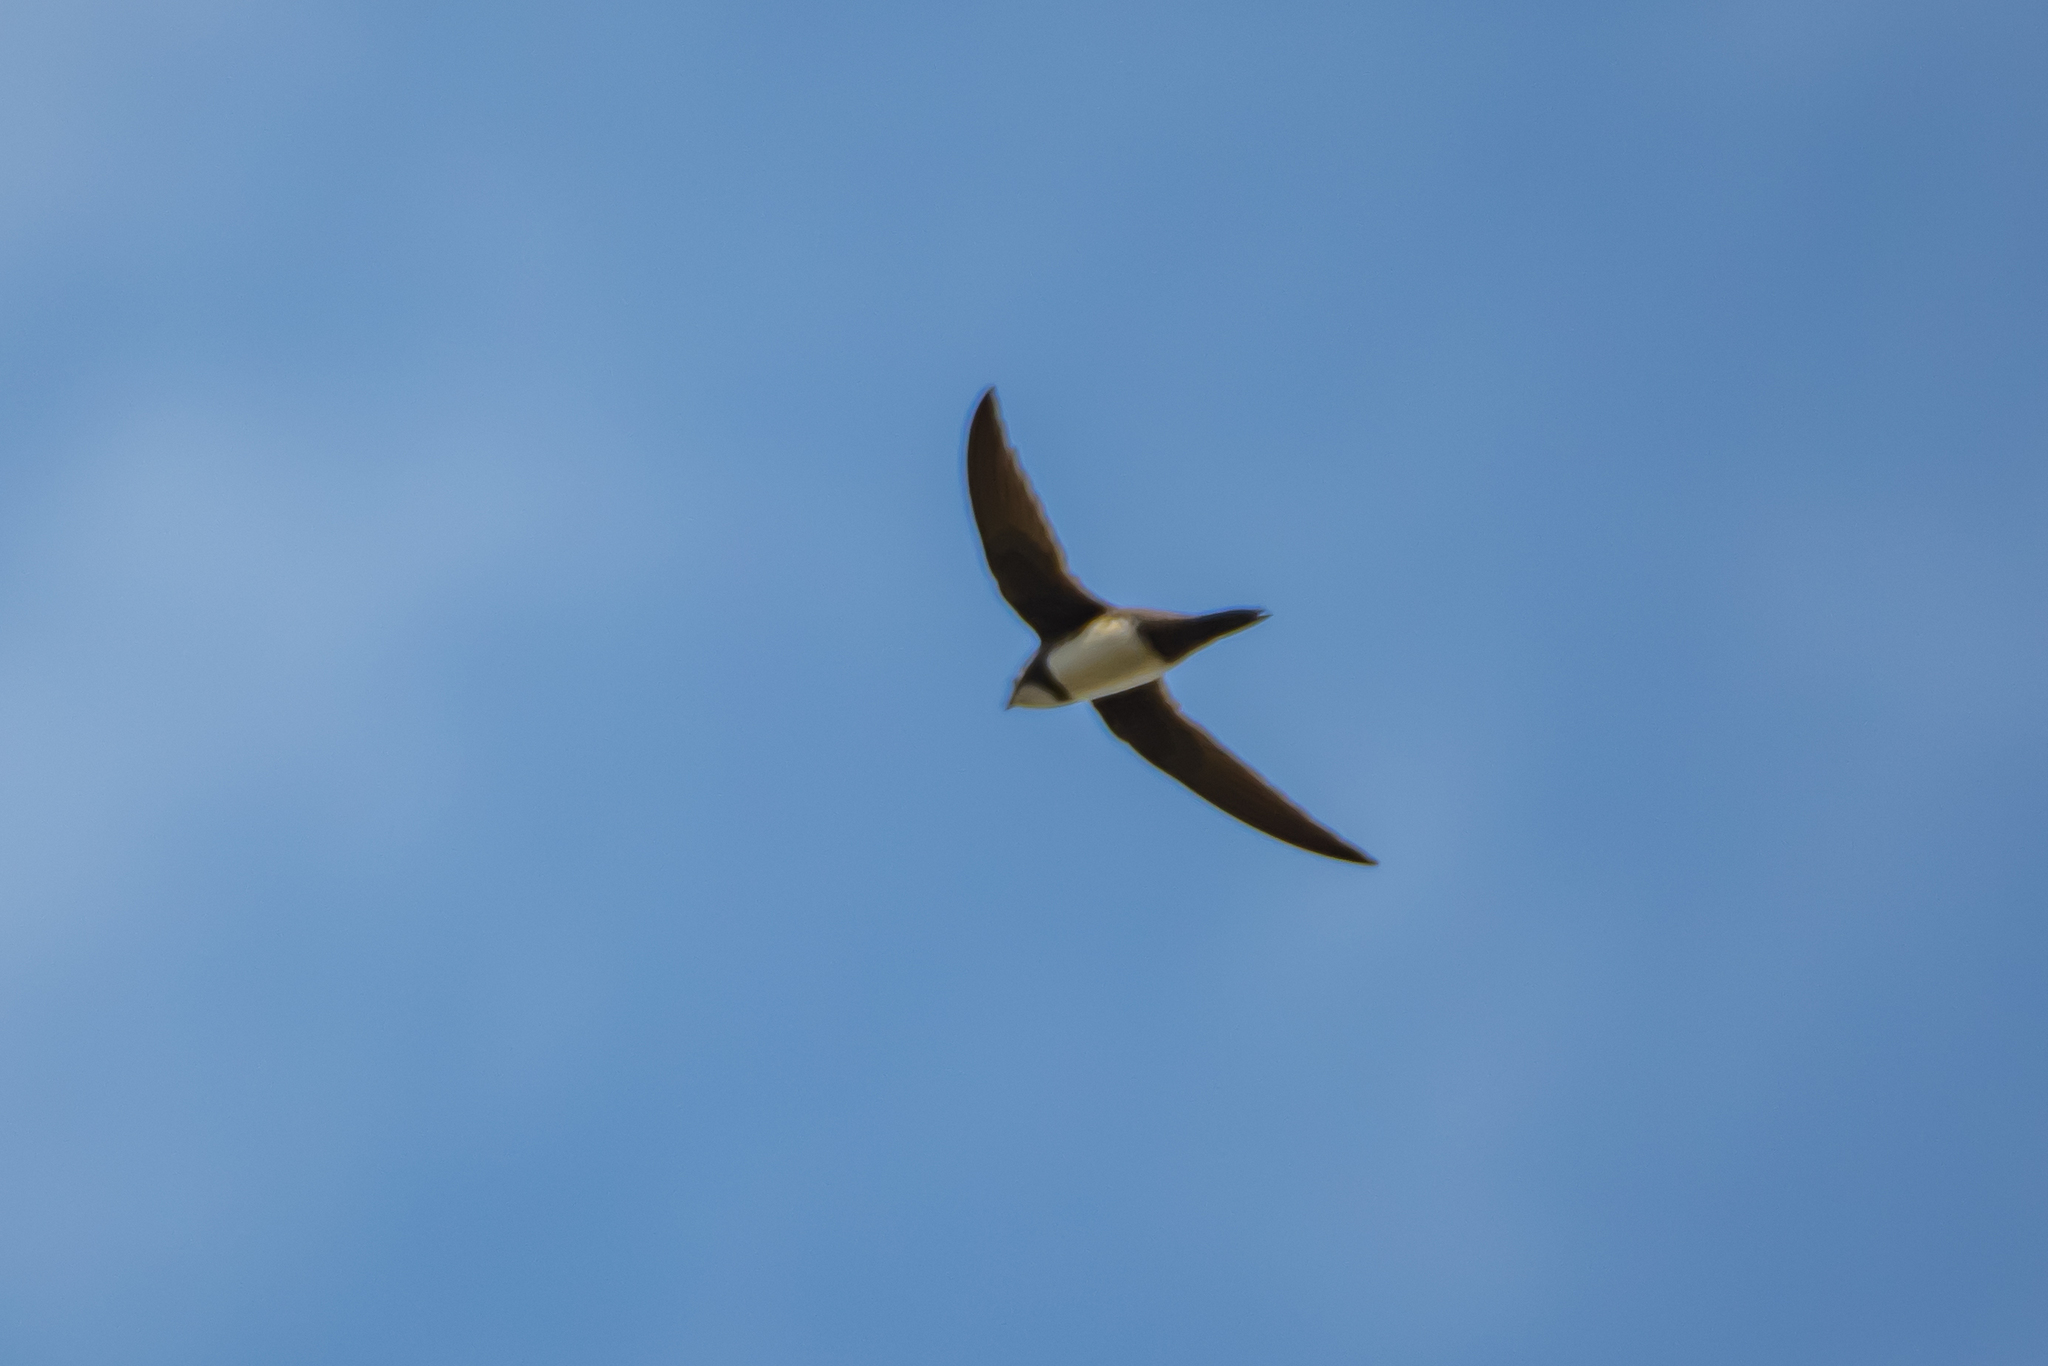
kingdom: Animalia
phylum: Chordata
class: Aves
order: Apodiformes
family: Apodidae
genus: Tachymarptis
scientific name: Tachymarptis melba
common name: Alpine swift
